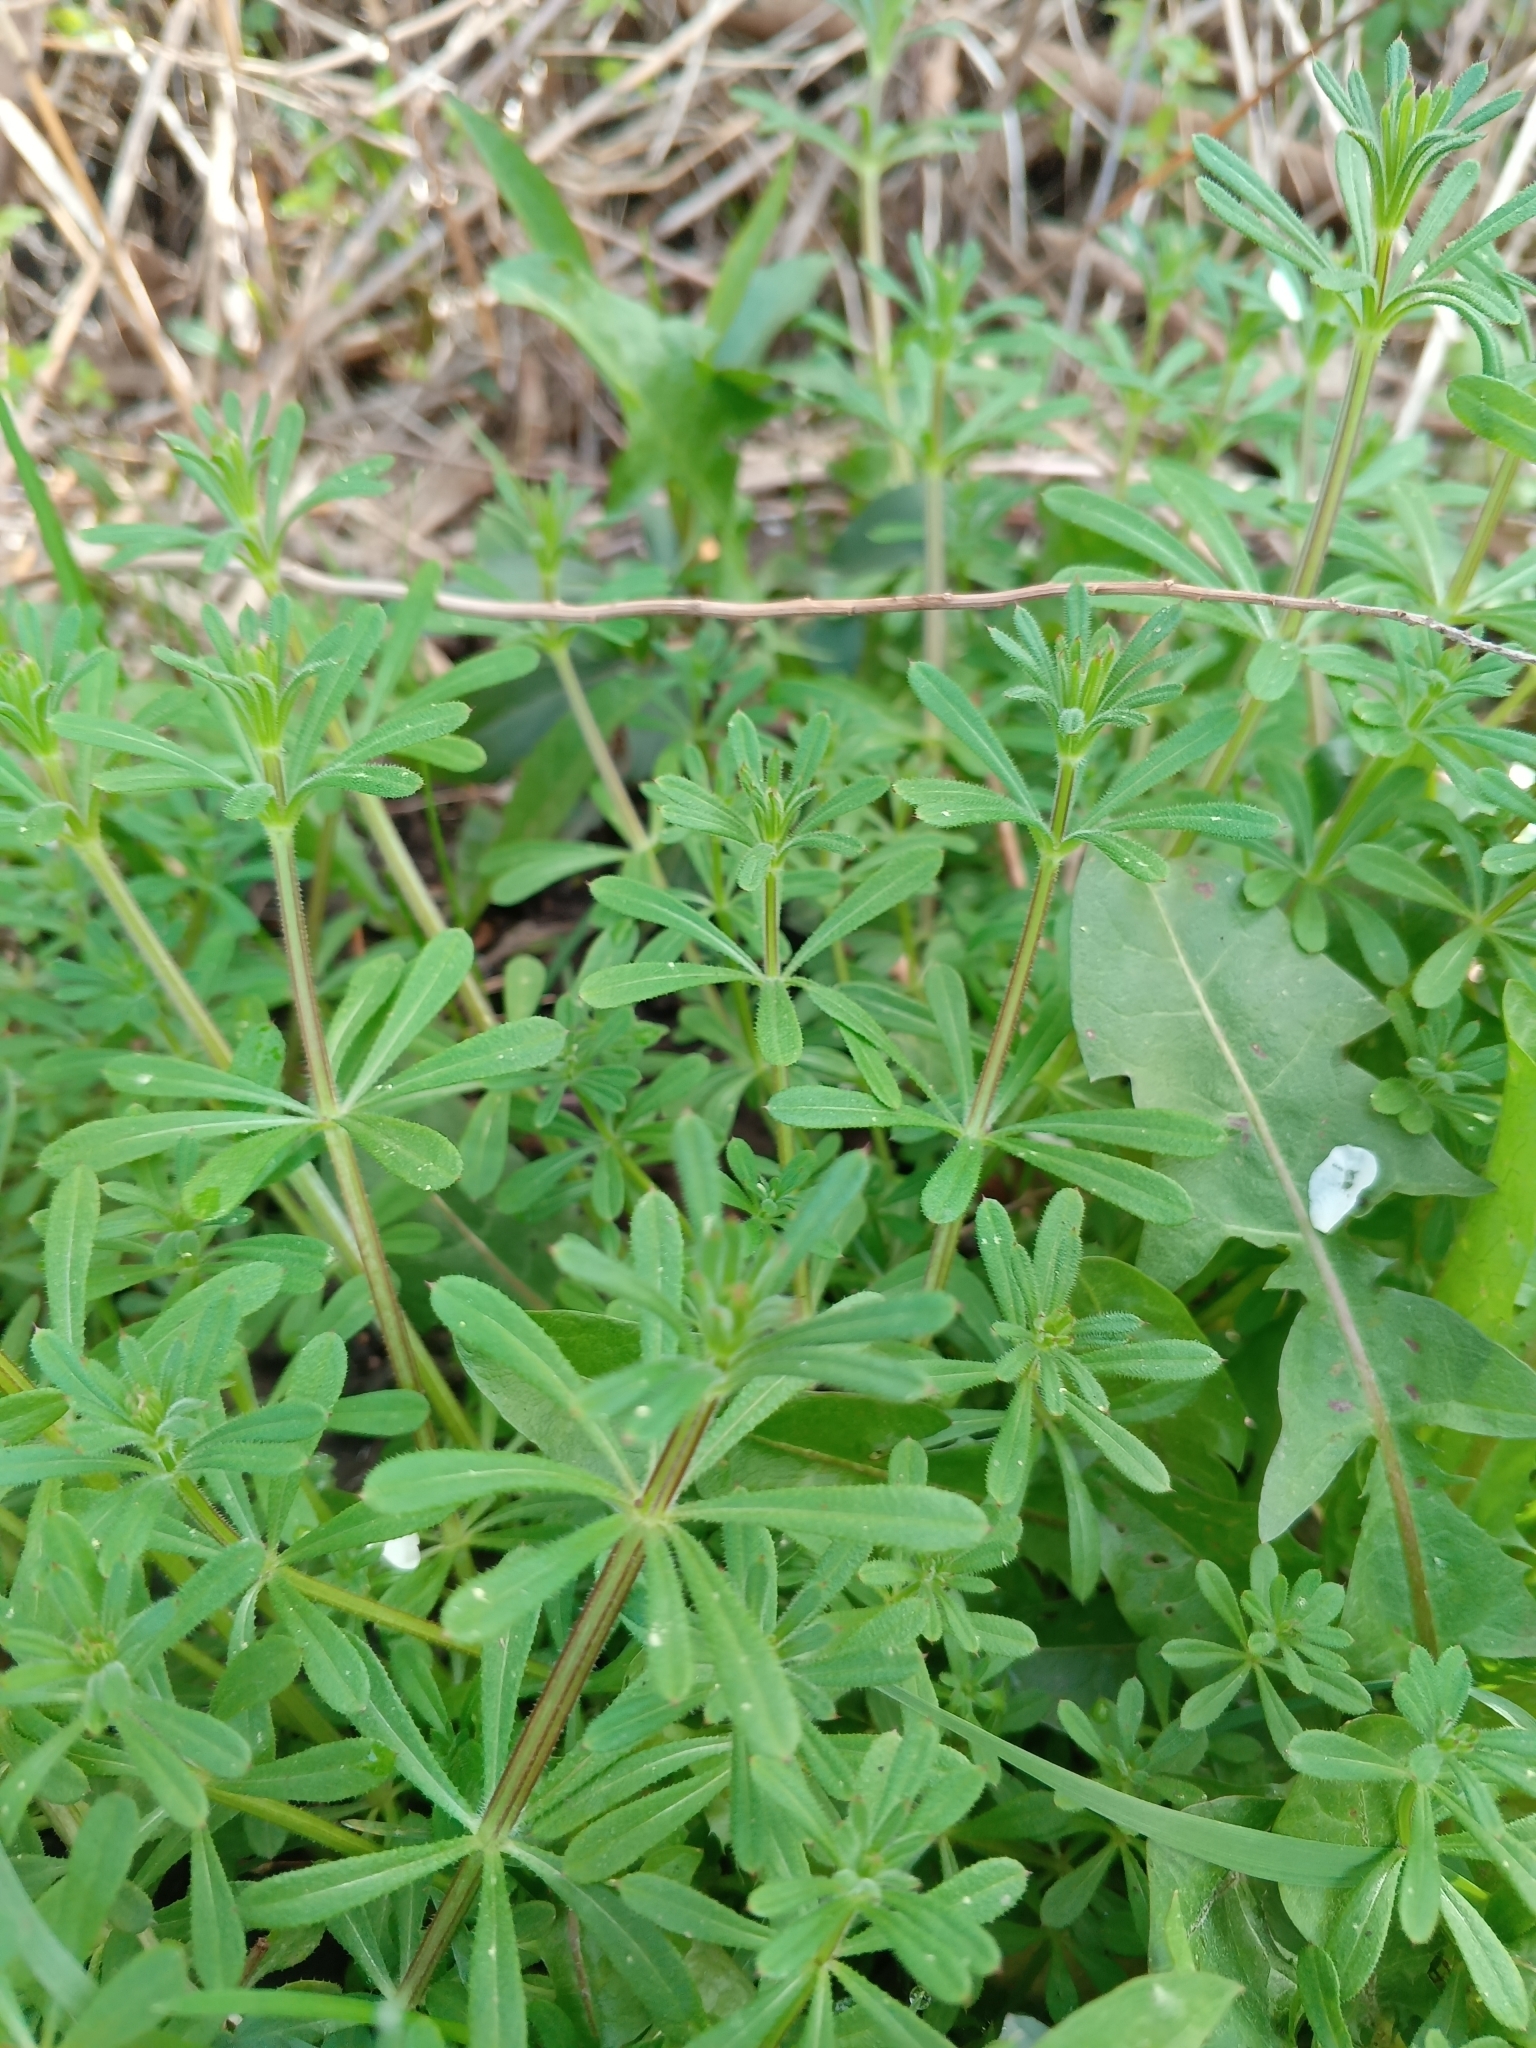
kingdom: Plantae
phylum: Tracheophyta
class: Magnoliopsida
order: Gentianales
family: Rubiaceae
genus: Galium
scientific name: Galium aparine
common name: Cleavers
